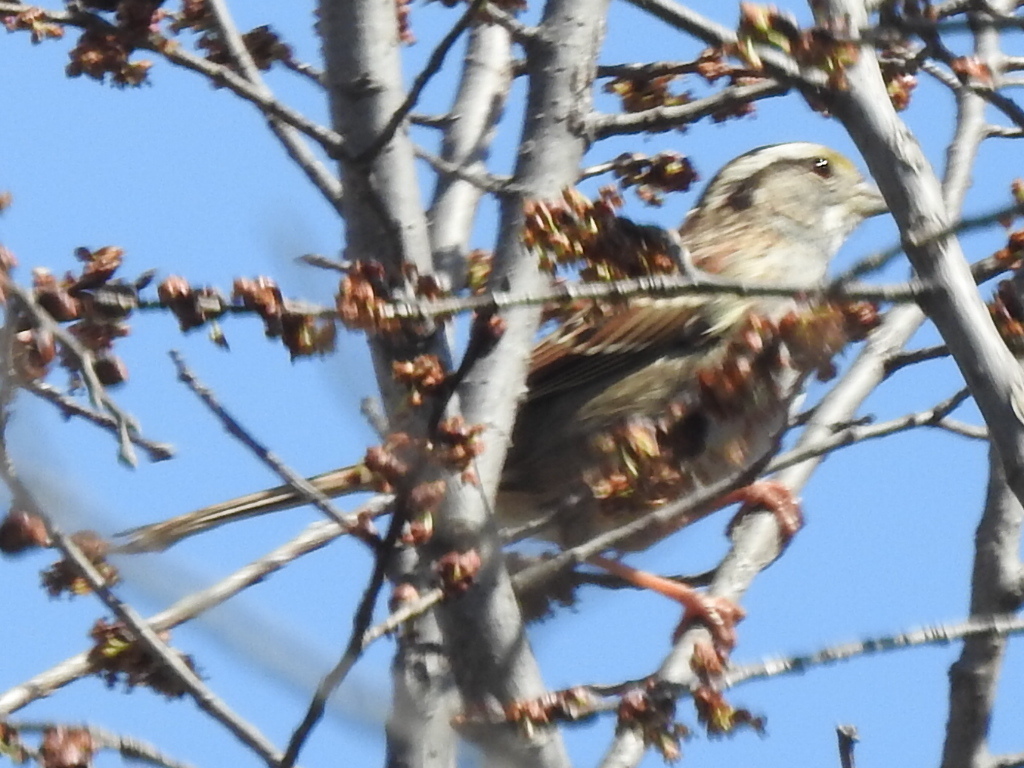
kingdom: Animalia
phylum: Chordata
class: Aves
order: Passeriformes
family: Passerellidae
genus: Zonotrichia
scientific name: Zonotrichia albicollis
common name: White-throated sparrow
